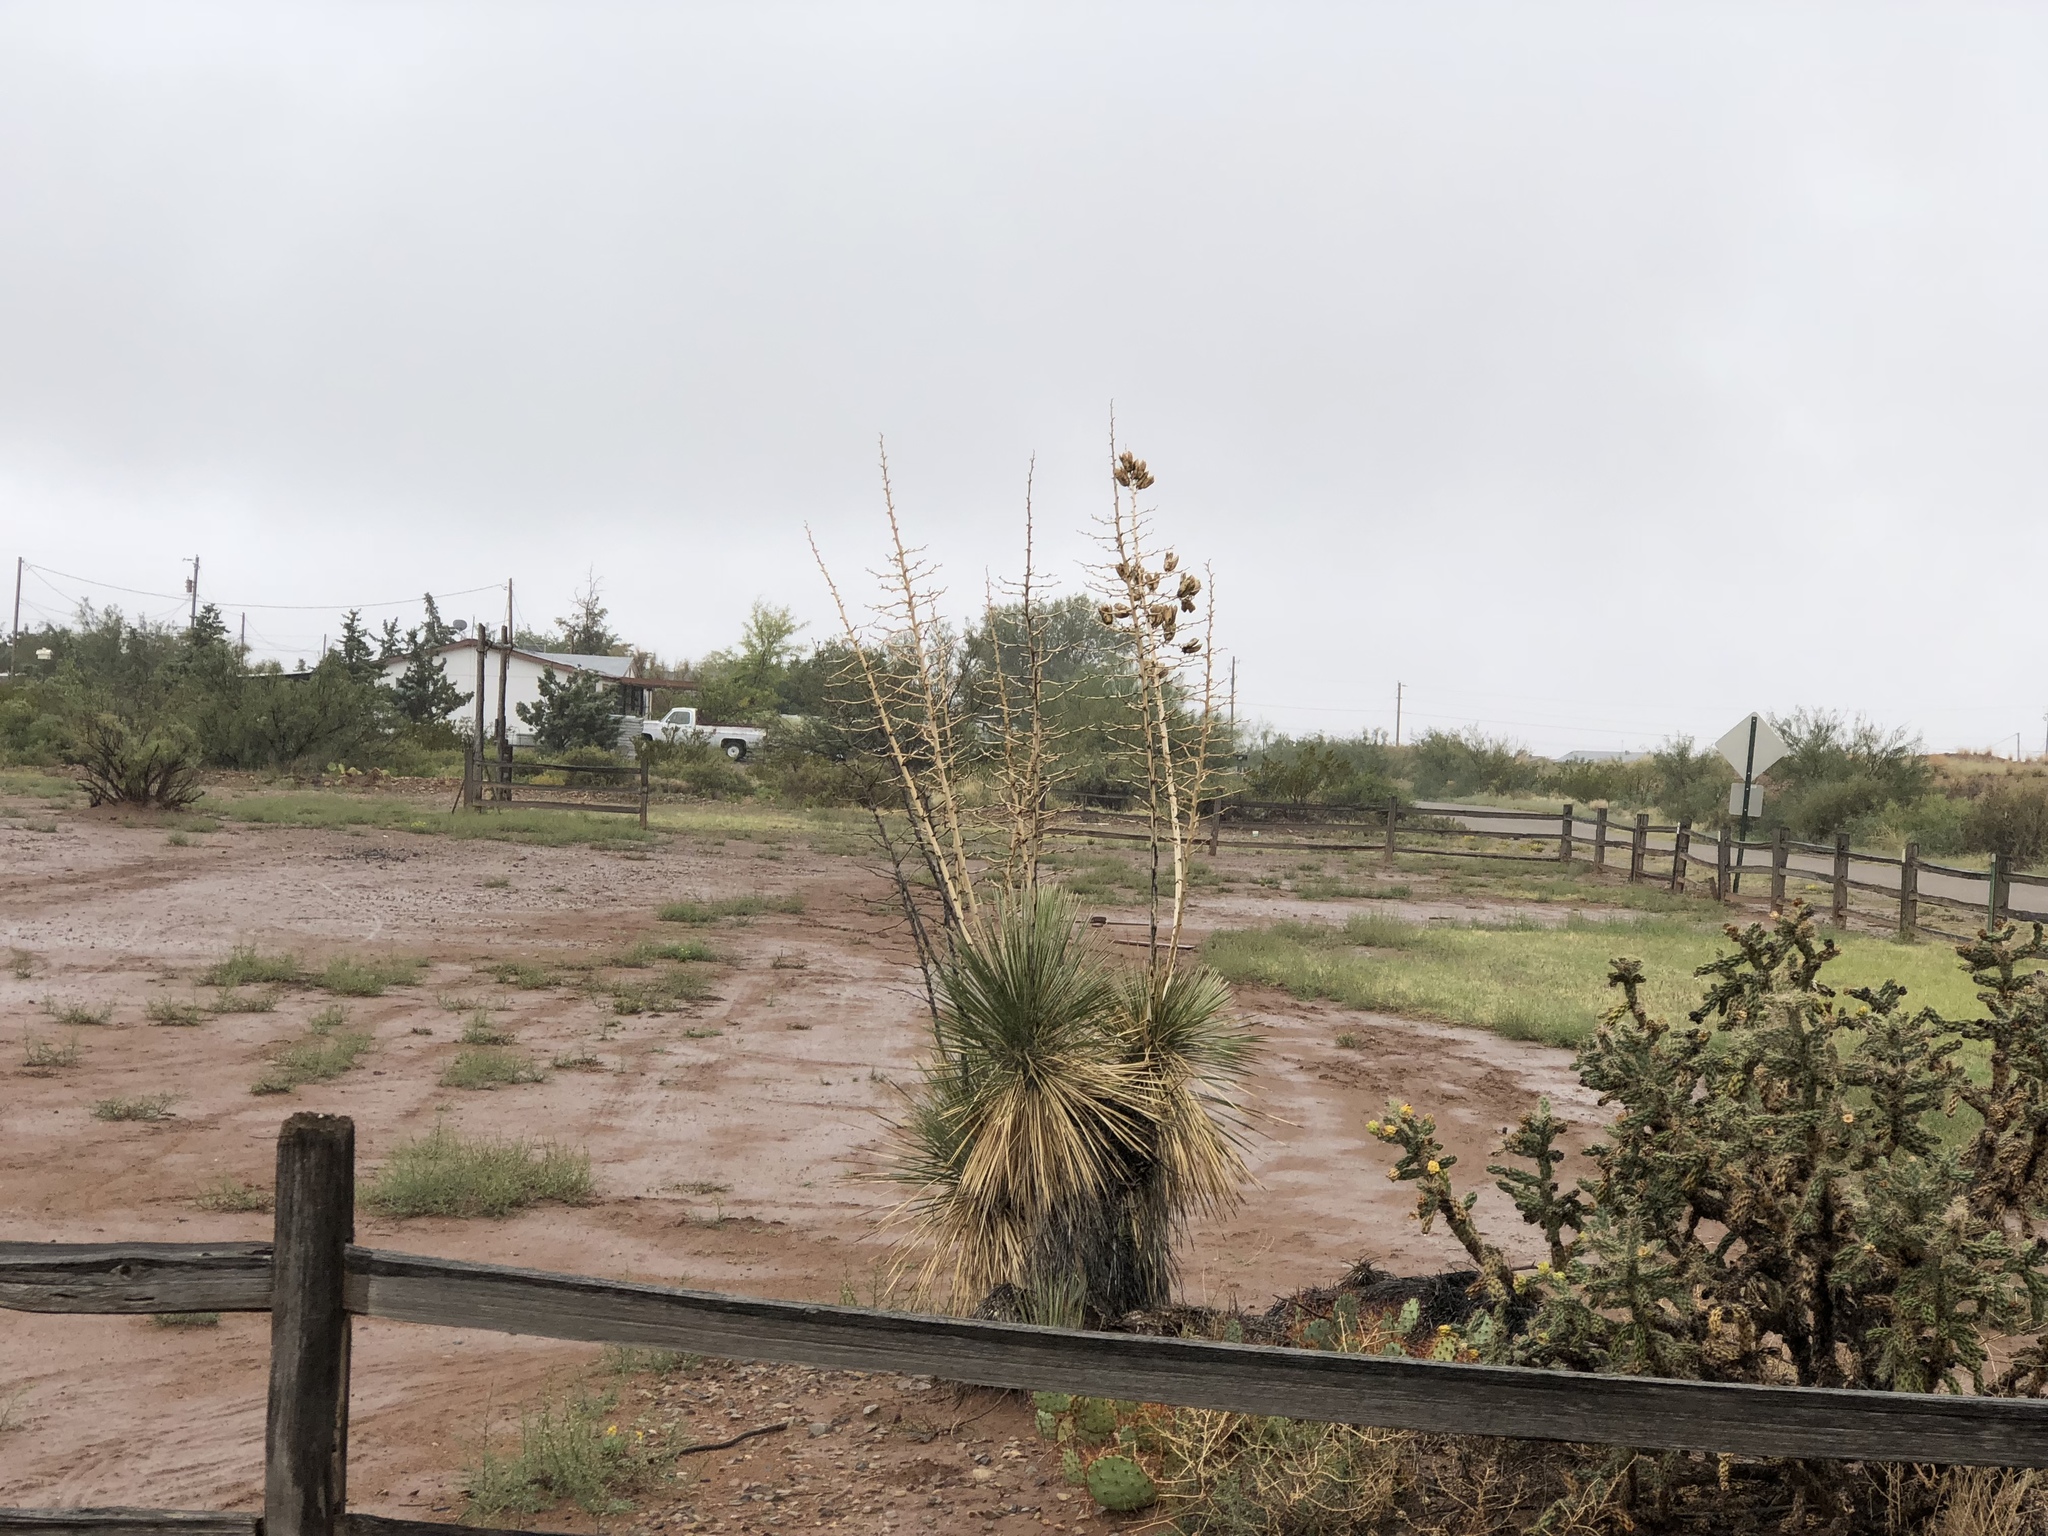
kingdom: Plantae
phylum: Tracheophyta
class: Liliopsida
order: Asparagales
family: Asparagaceae
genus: Yucca
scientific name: Yucca elata
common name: Palmella
